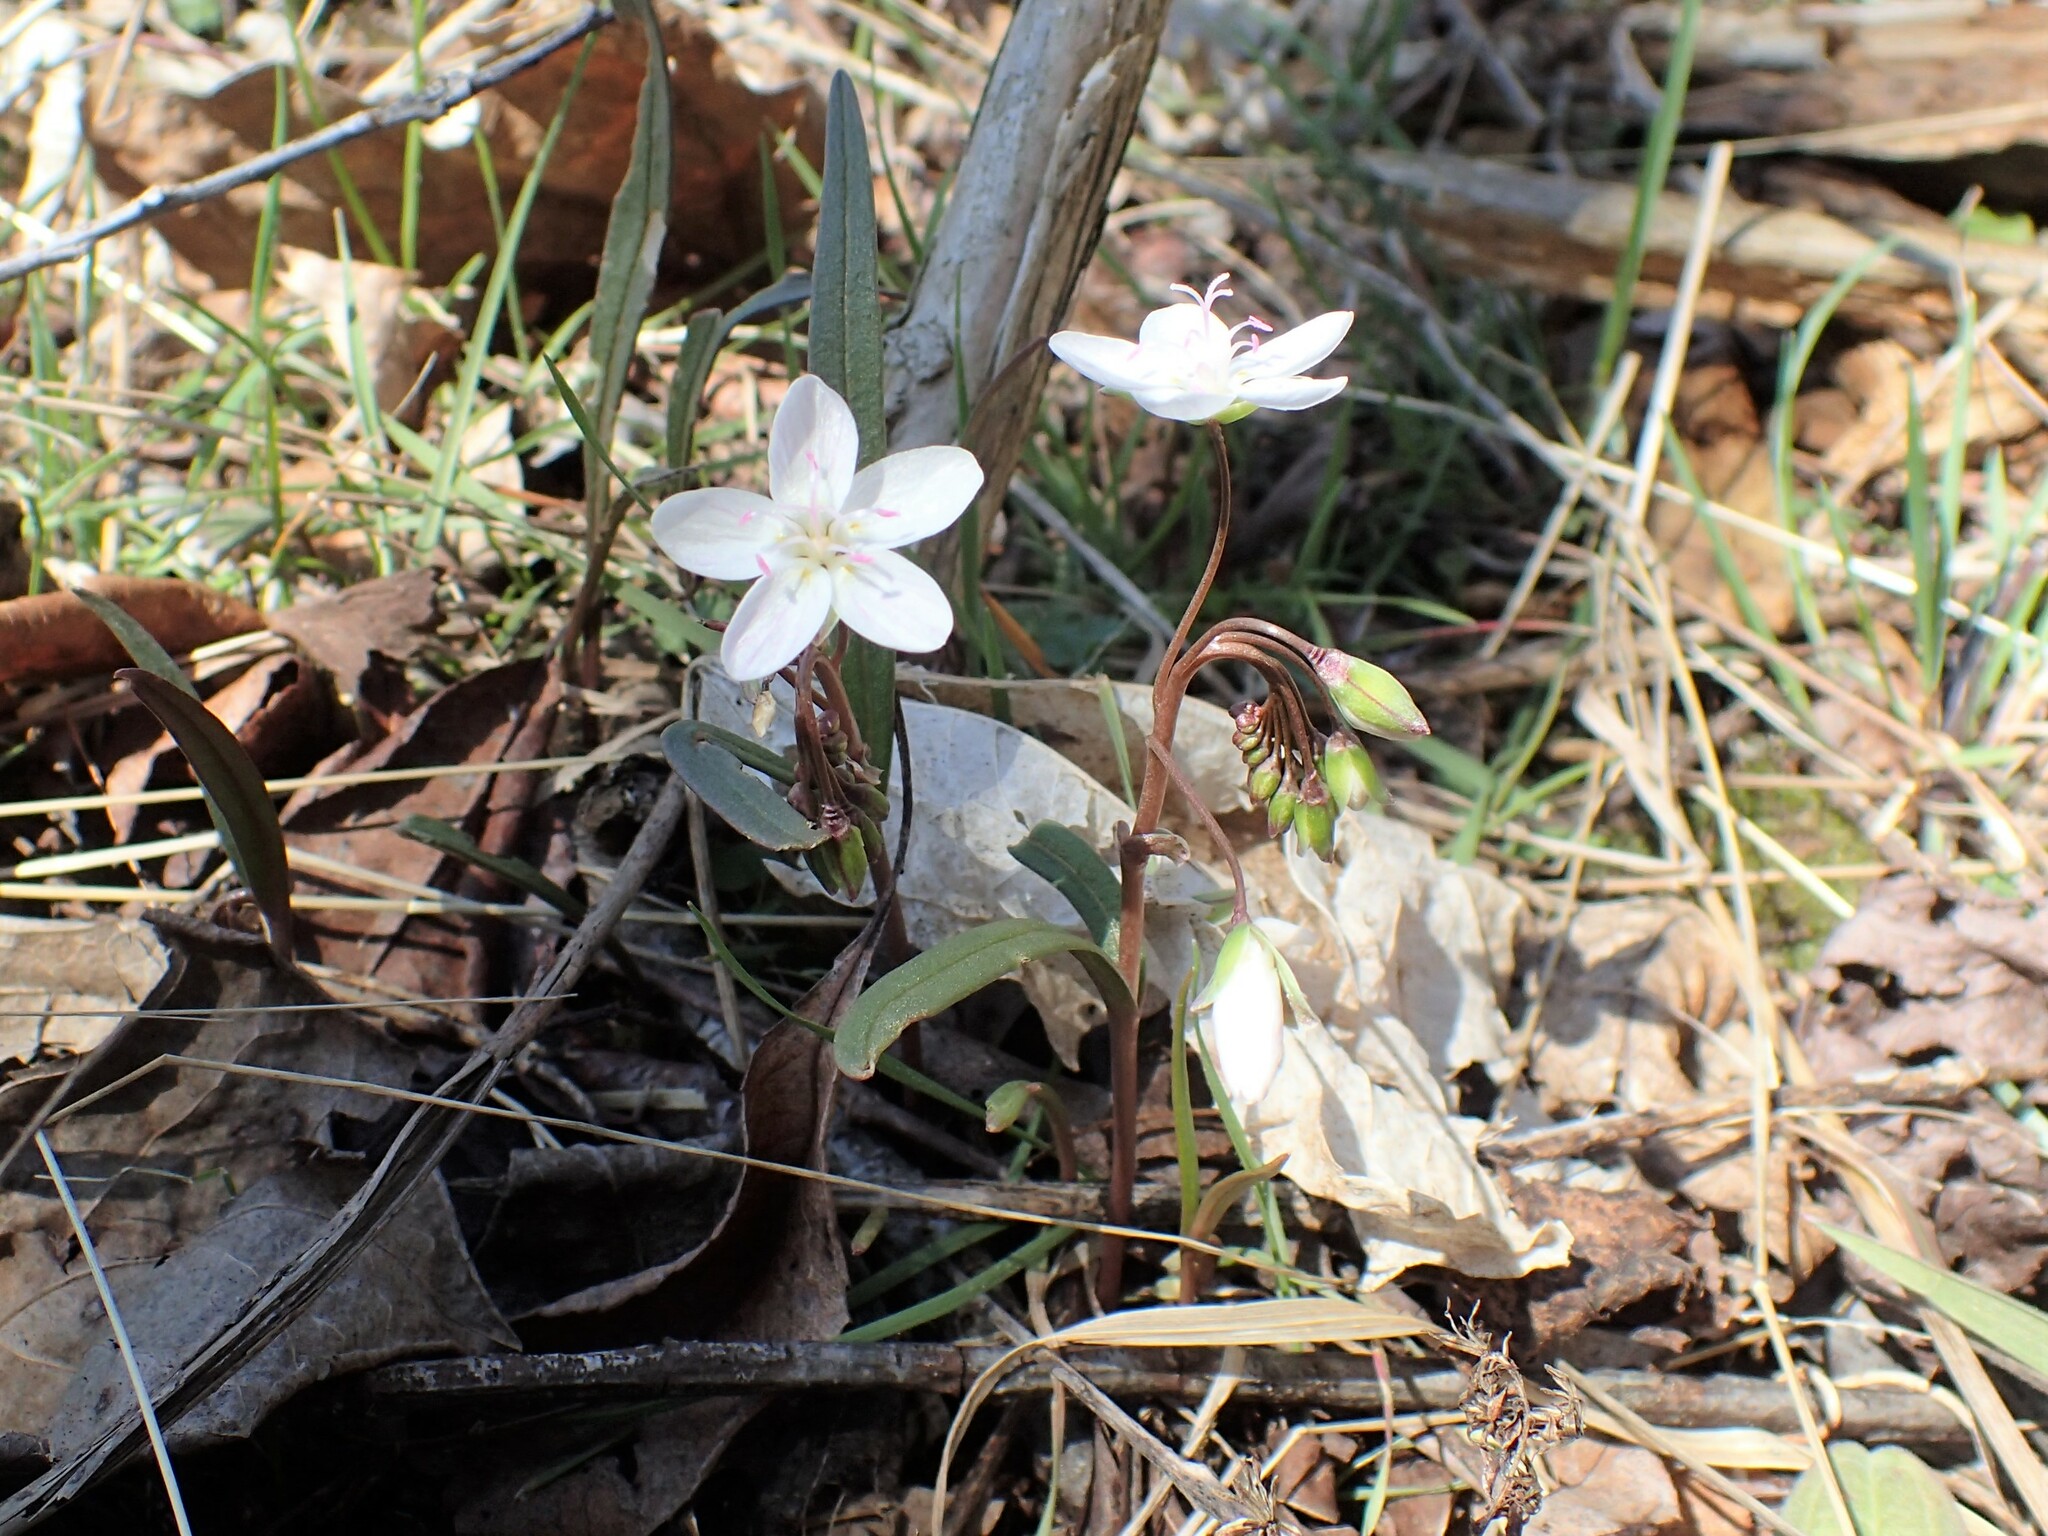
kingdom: Plantae
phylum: Tracheophyta
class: Magnoliopsida
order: Caryophyllales
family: Montiaceae
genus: Claytonia
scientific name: Claytonia virginica
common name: Virginia springbeauty
